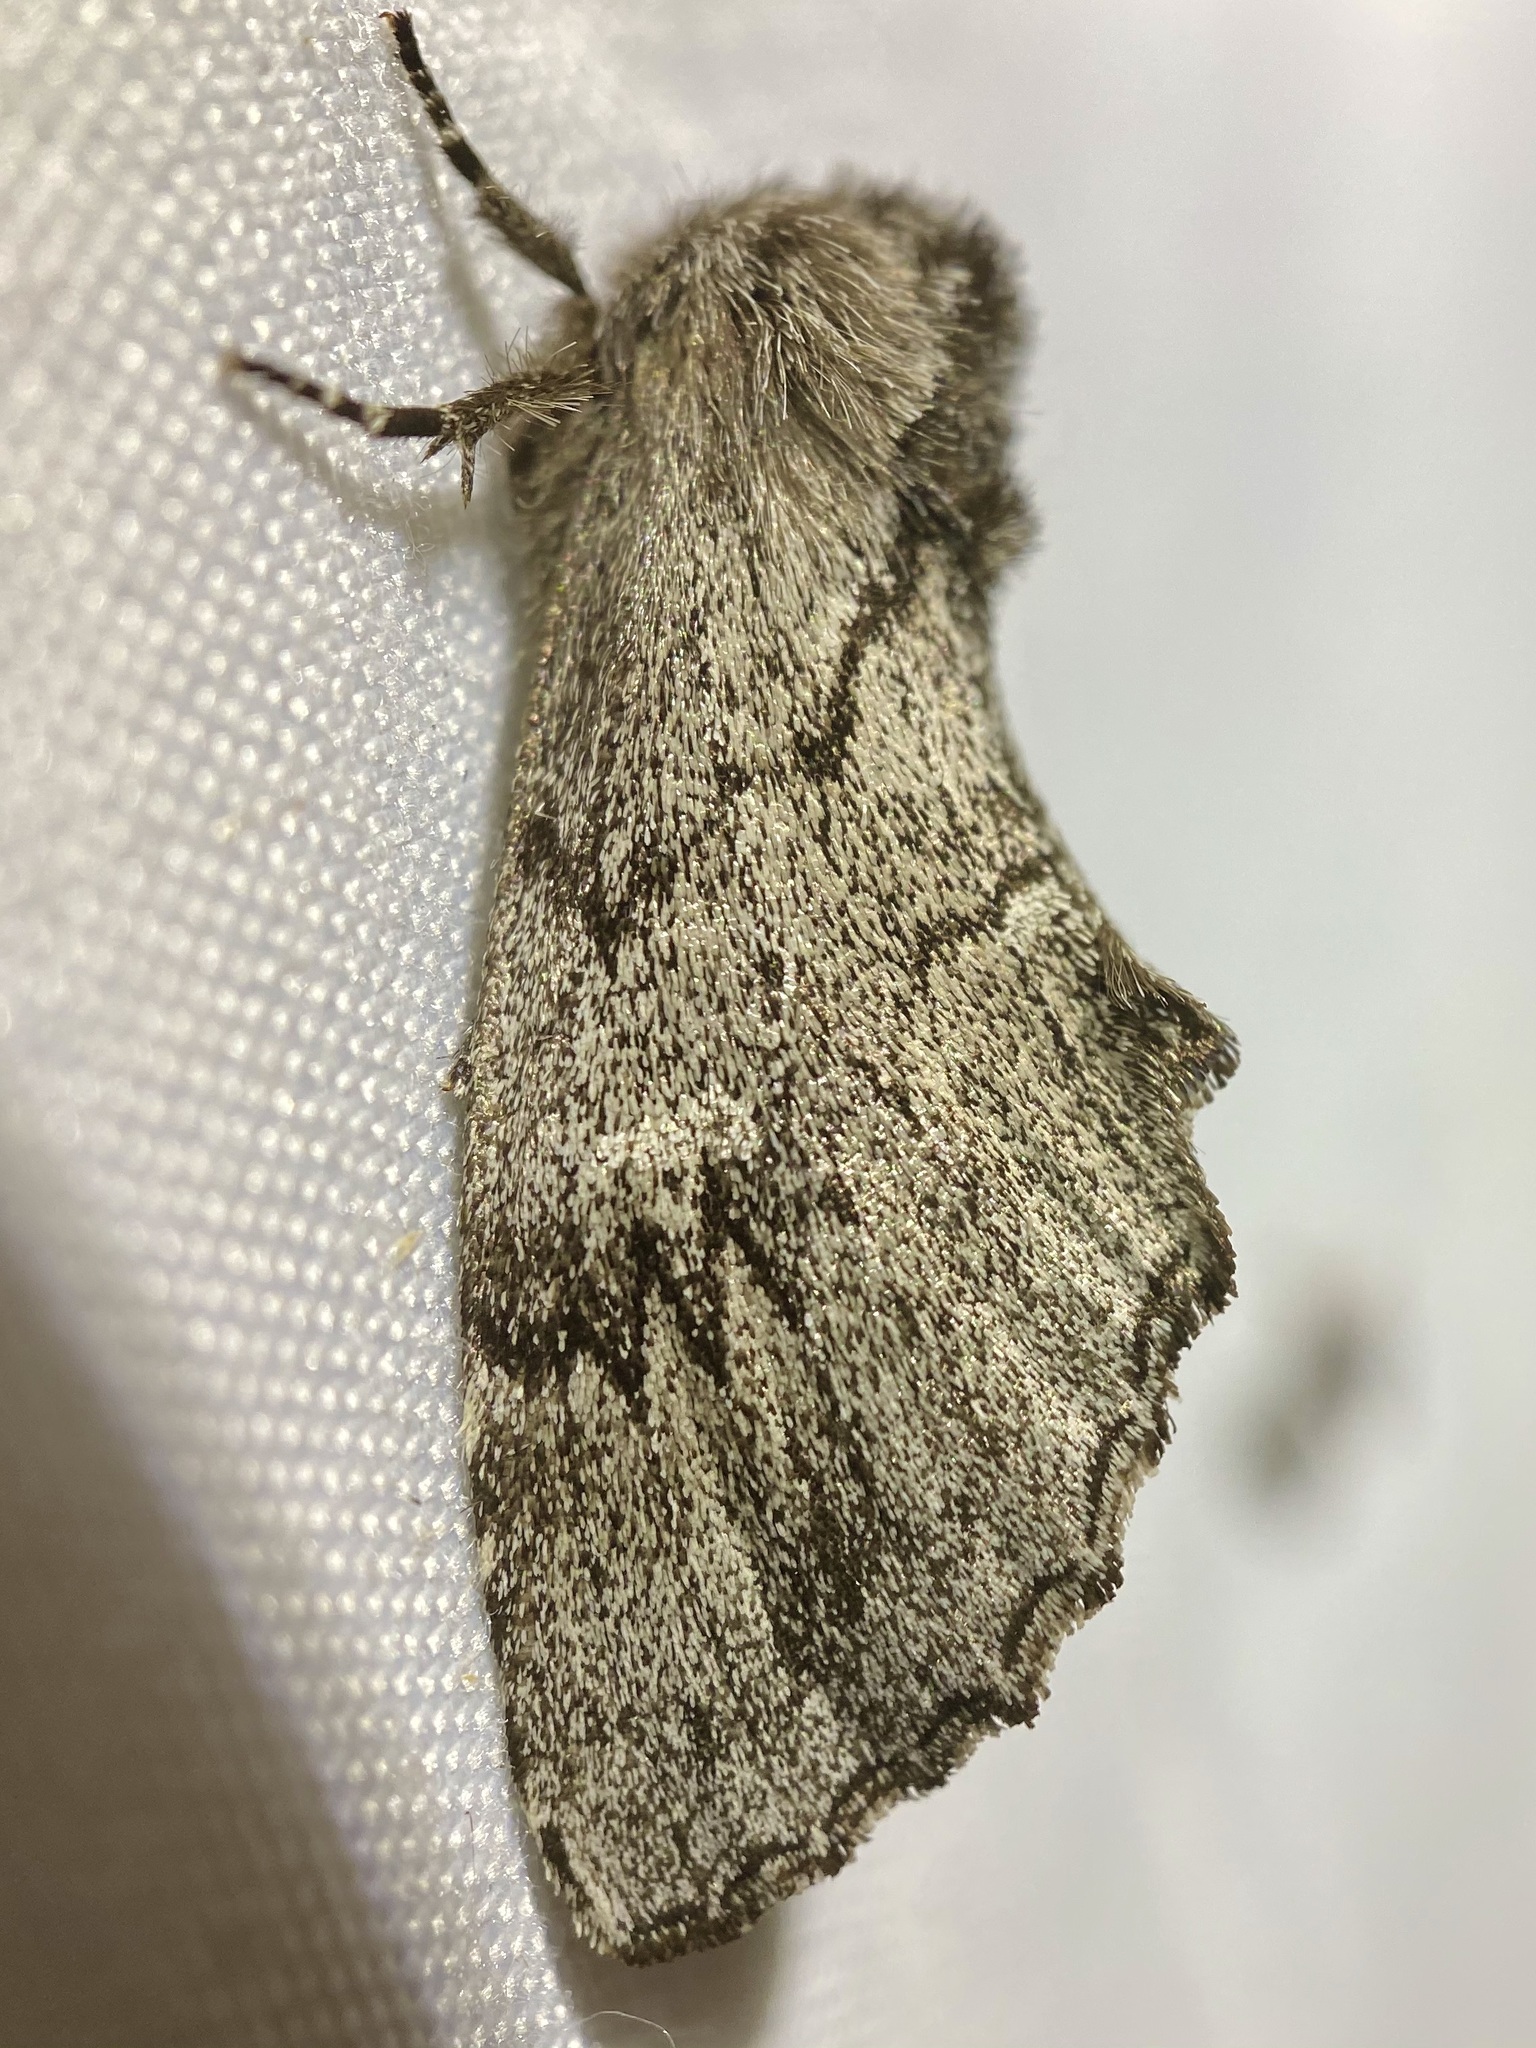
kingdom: Animalia
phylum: Arthropoda
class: Insecta
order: Lepidoptera
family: Notodontidae
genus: Cargida
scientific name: Cargida pyrrha
